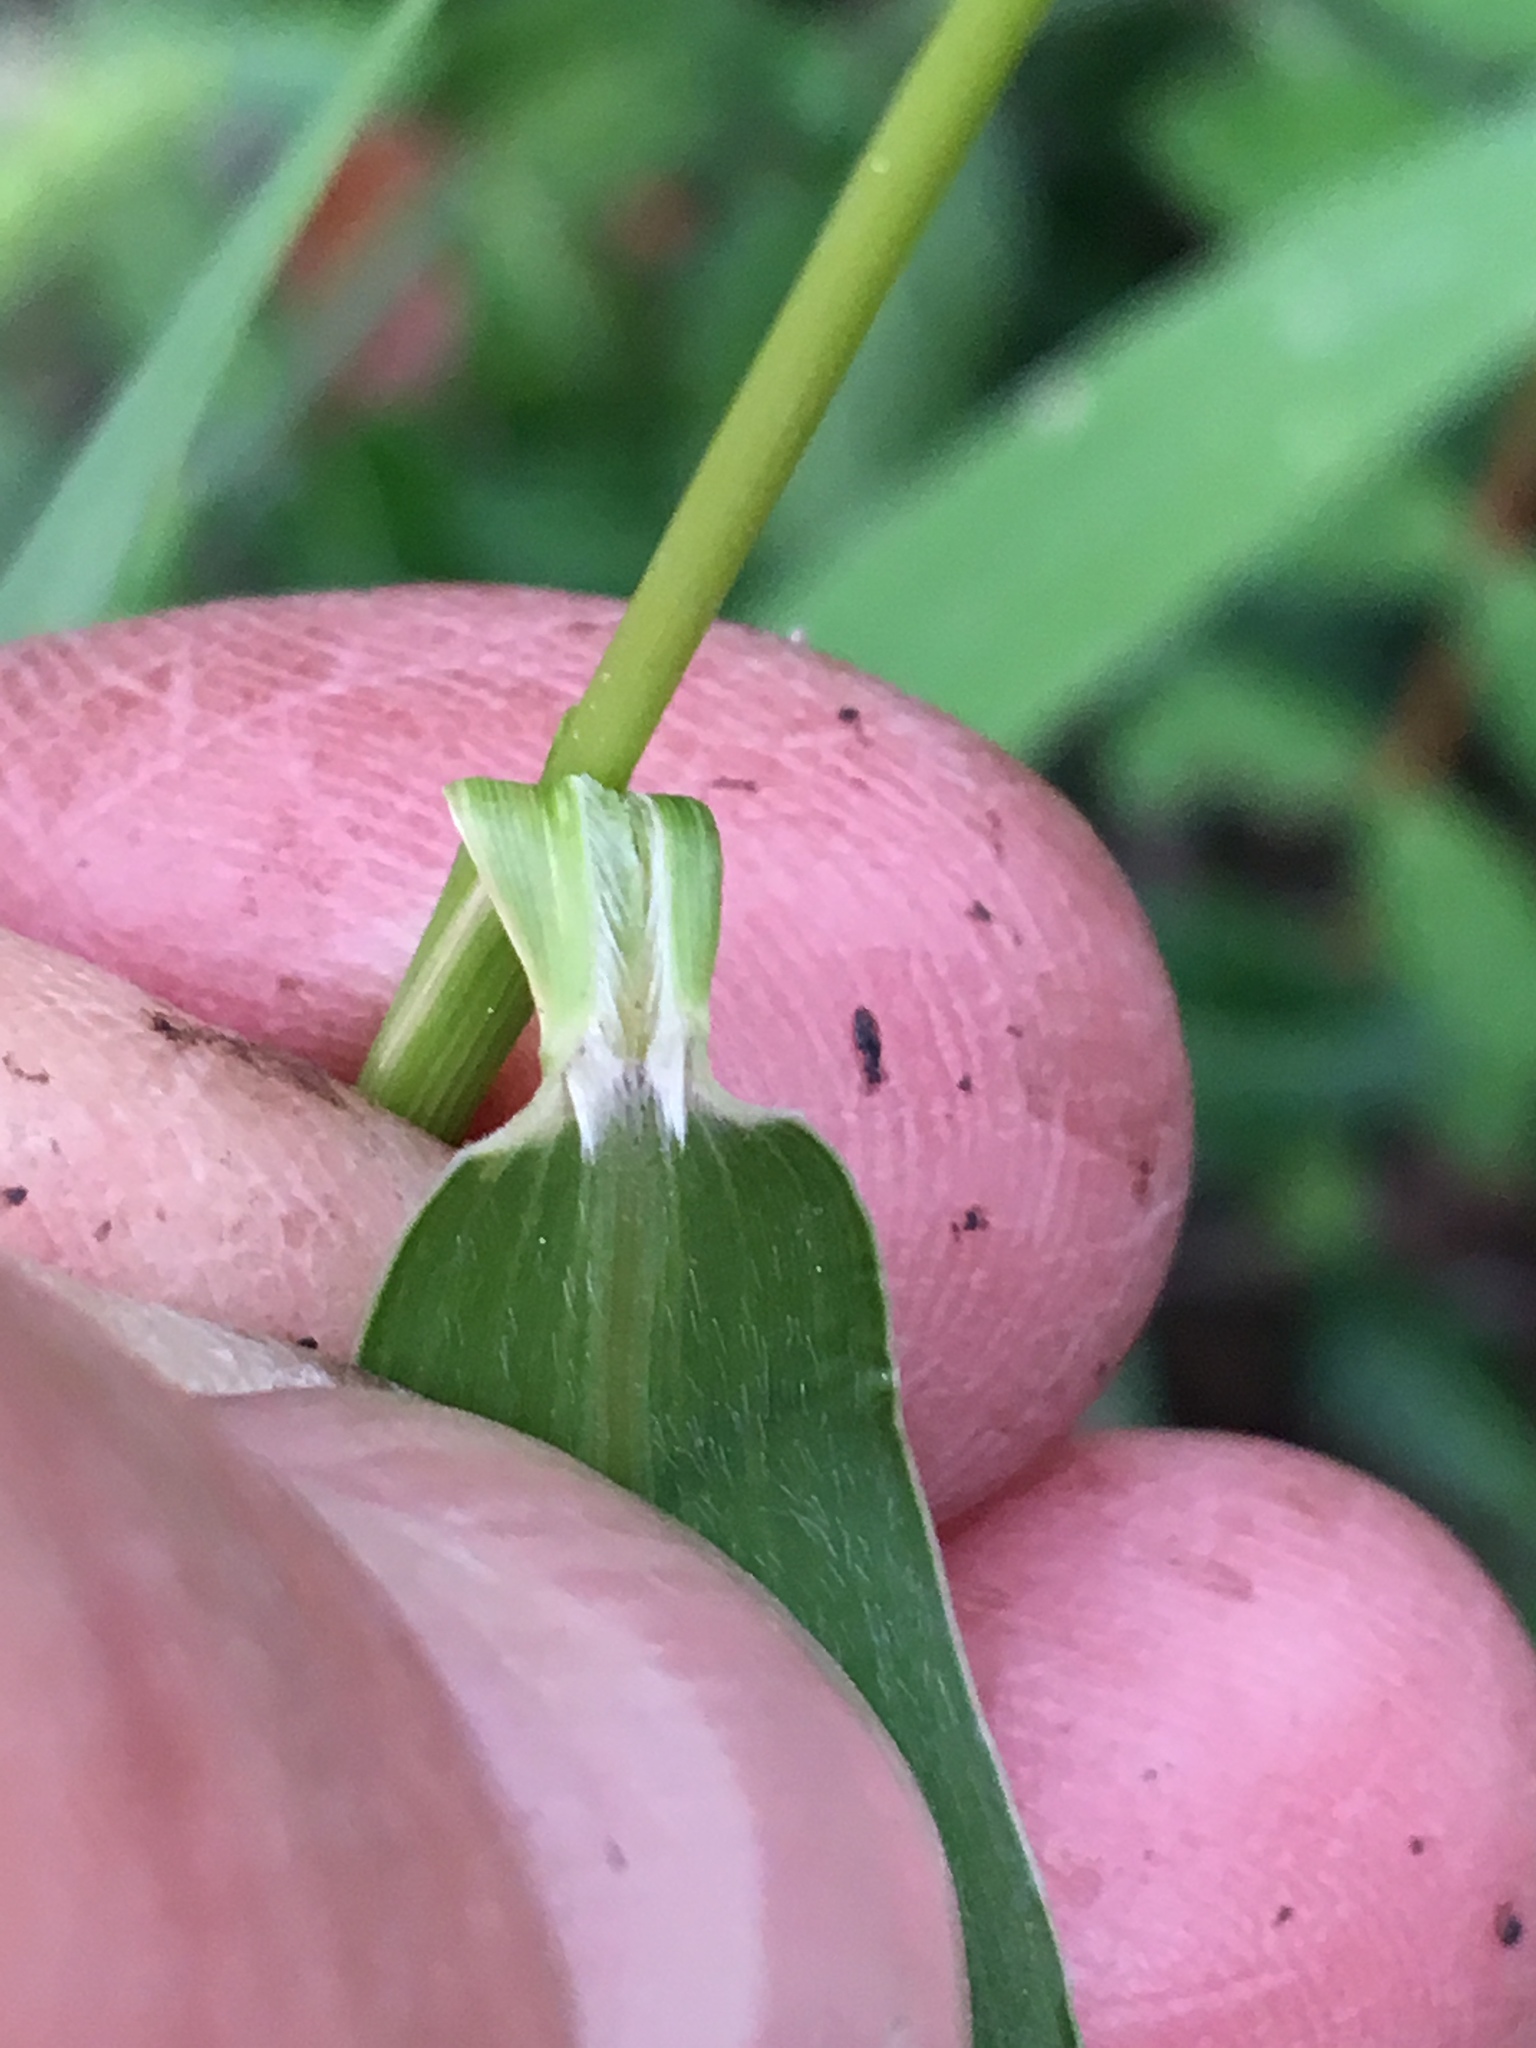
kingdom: Plantae
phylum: Tracheophyta
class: Liliopsida
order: Poales
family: Poaceae
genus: Setaria
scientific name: Setaria faberi
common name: Nodding bristle-grass
